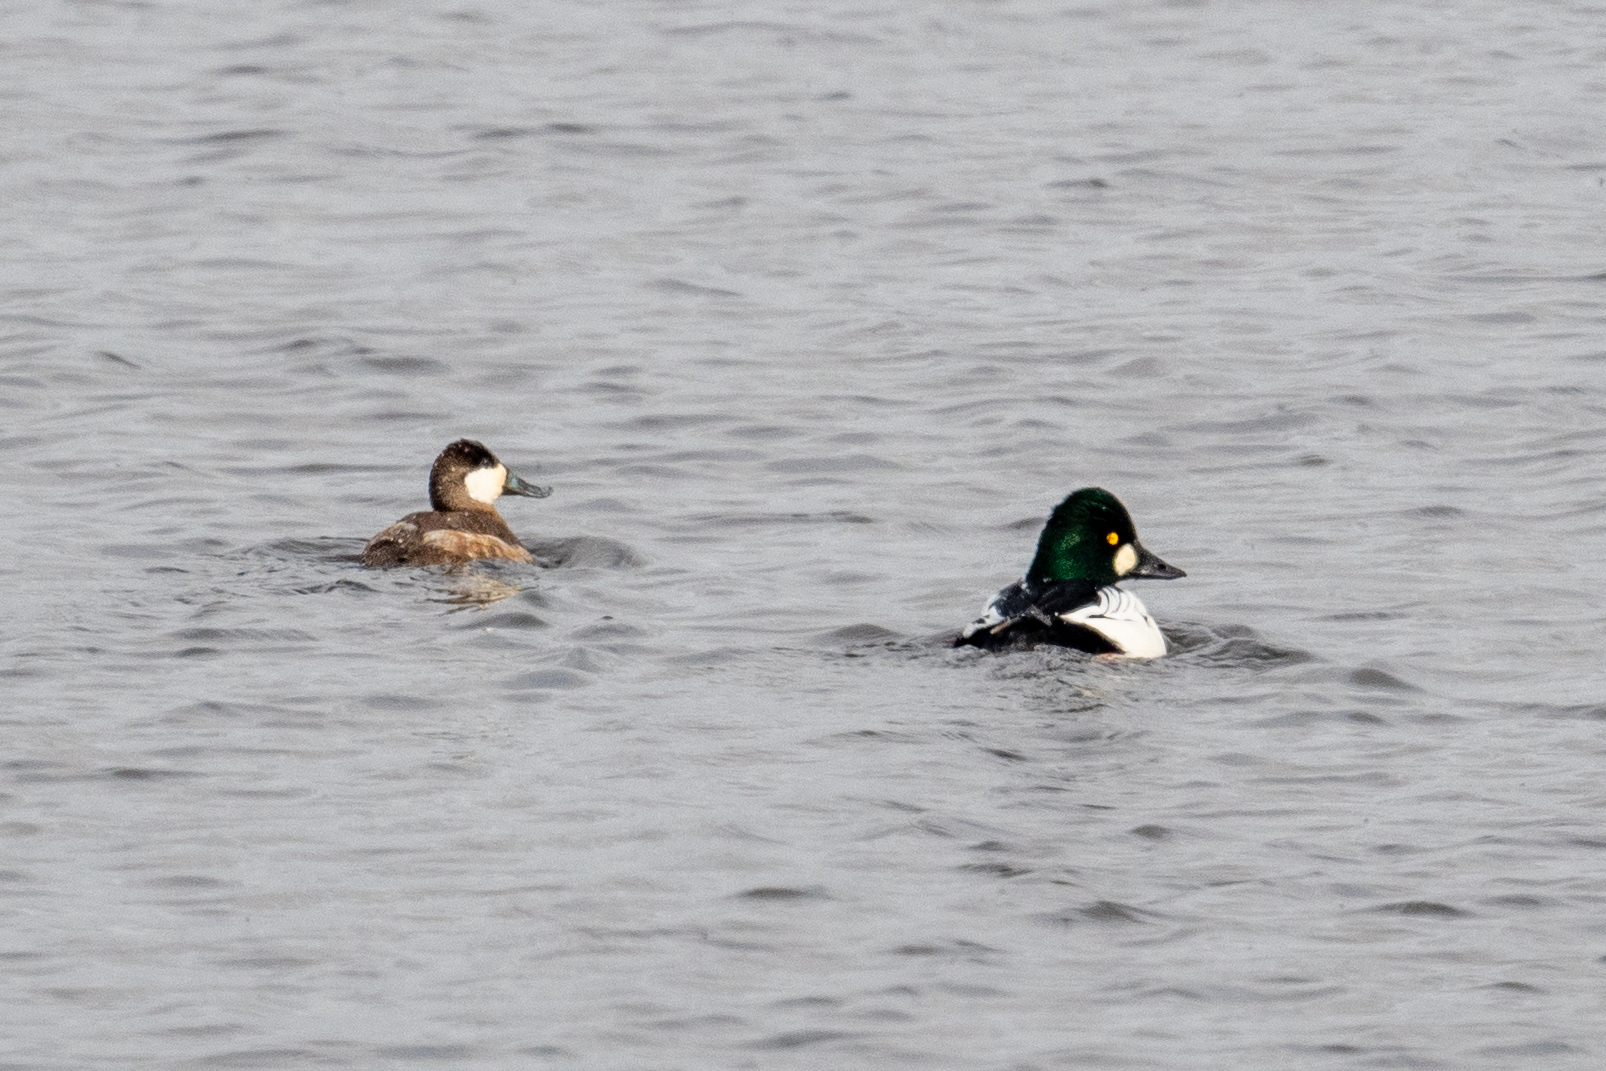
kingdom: Animalia
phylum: Chordata
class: Aves
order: Anseriformes
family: Anatidae
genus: Bucephala
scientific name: Bucephala clangula
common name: Common goldeneye
